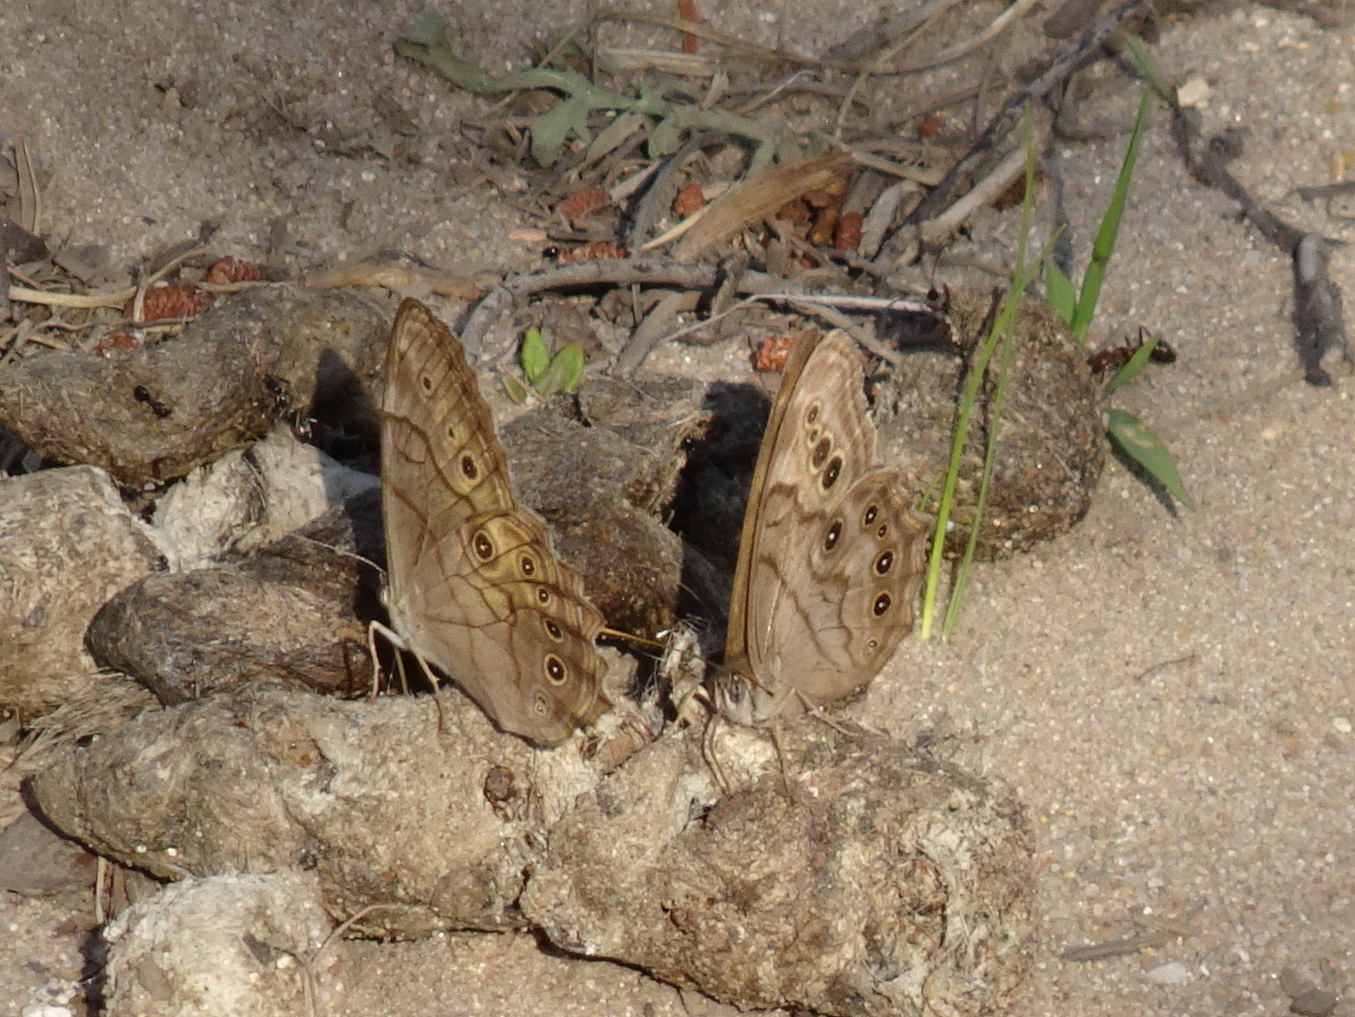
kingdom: Animalia
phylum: Arthropoda
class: Insecta
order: Lepidoptera
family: Nymphalidae
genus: Lethe
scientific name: Lethe anthedon
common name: Northern pearly-eye
